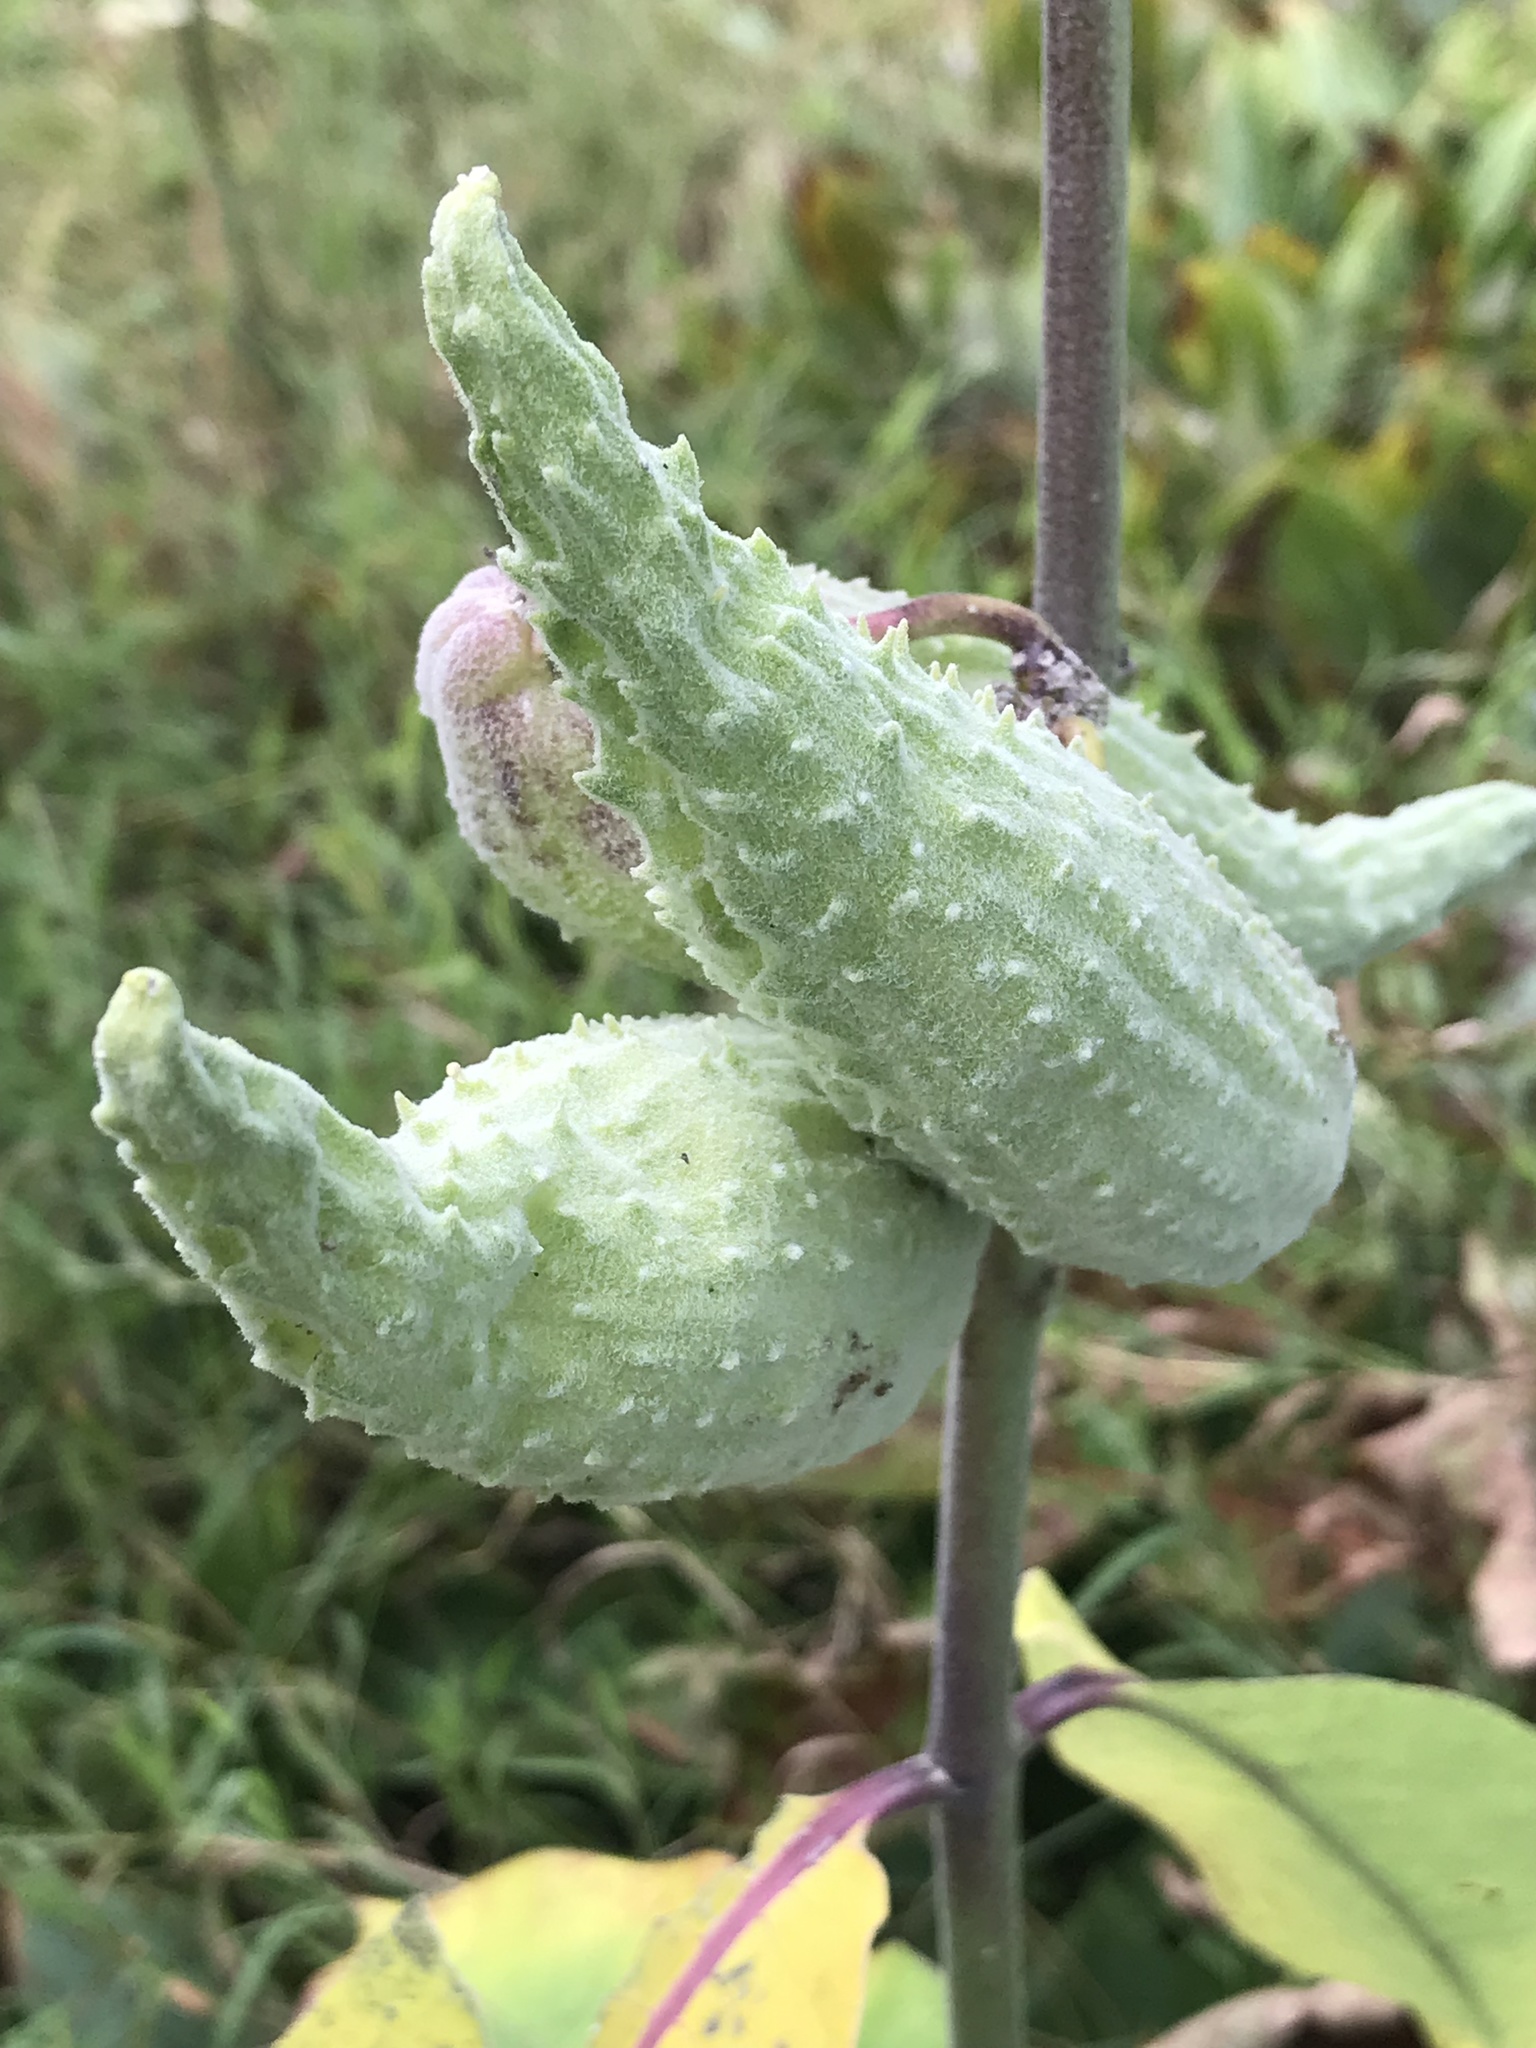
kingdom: Plantae
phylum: Tracheophyta
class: Magnoliopsida
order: Gentianales
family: Apocynaceae
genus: Asclepias
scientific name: Asclepias syriaca
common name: Common milkweed
